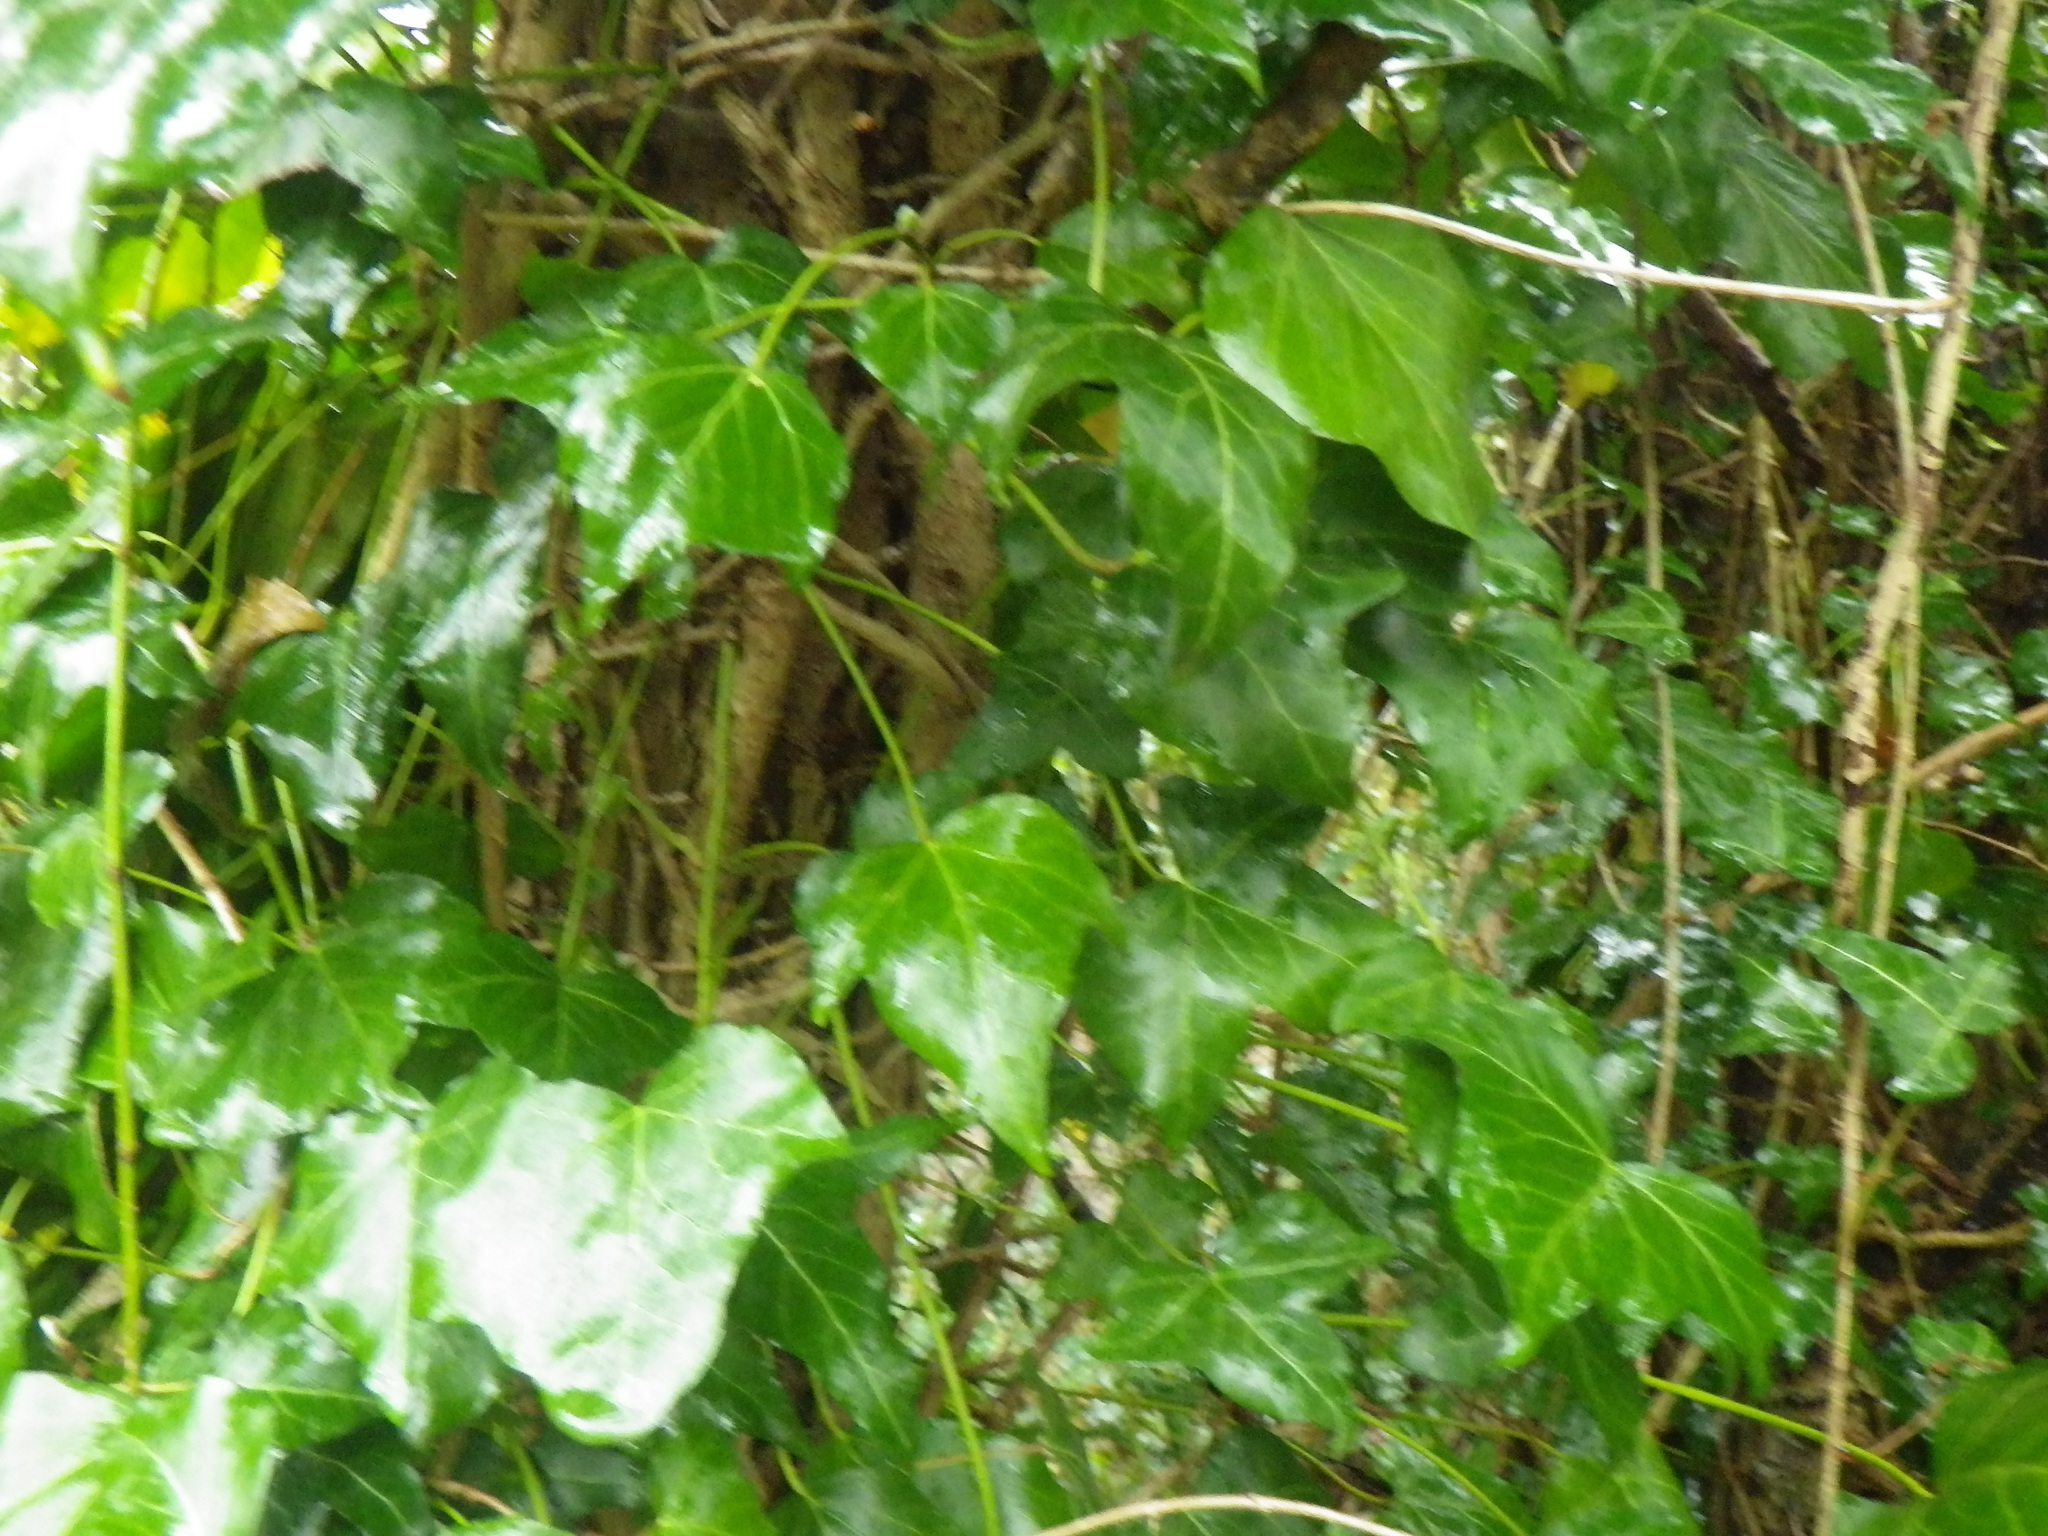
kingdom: Plantae
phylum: Tracheophyta
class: Magnoliopsida
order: Apiales
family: Araliaceae
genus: Hedera
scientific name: Hedera colchica
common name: Persian ivy
